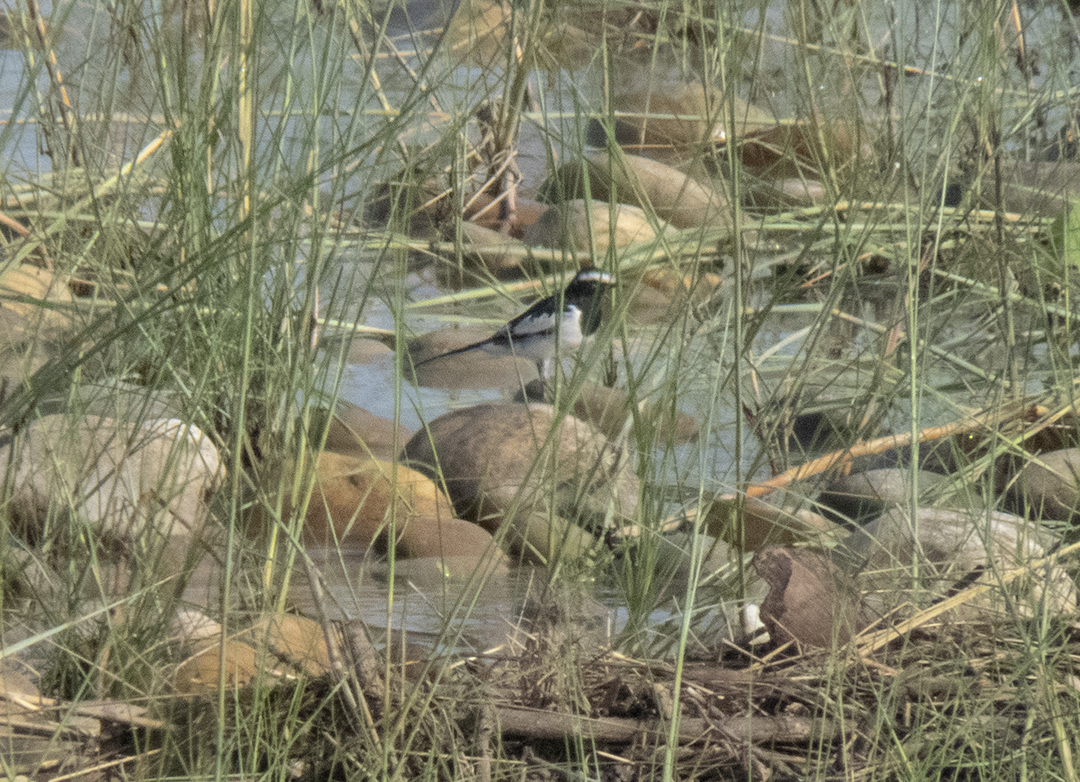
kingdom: Animalia
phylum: Chordata
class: Aves
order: Passeriformes
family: Motacillidae
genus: Motacilla
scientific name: Motacilla maderaspatensis
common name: White-browed wagtail
